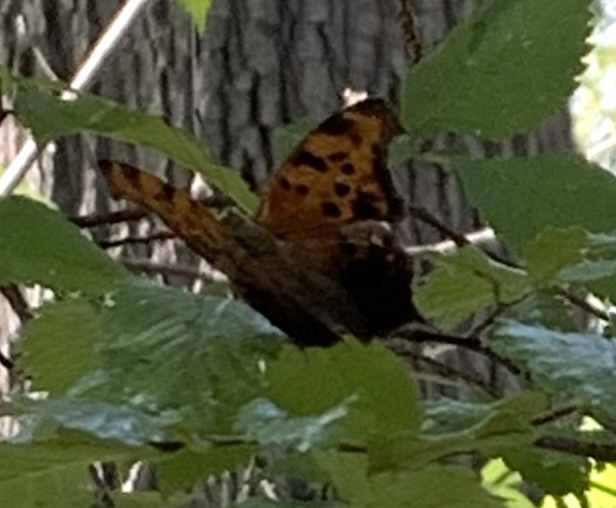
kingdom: Animalia
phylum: Arthropoda
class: Insecta
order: Lepidoptera
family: Nymphalidae
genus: Polygonia
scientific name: Polygonia interrogationis
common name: Question mark
